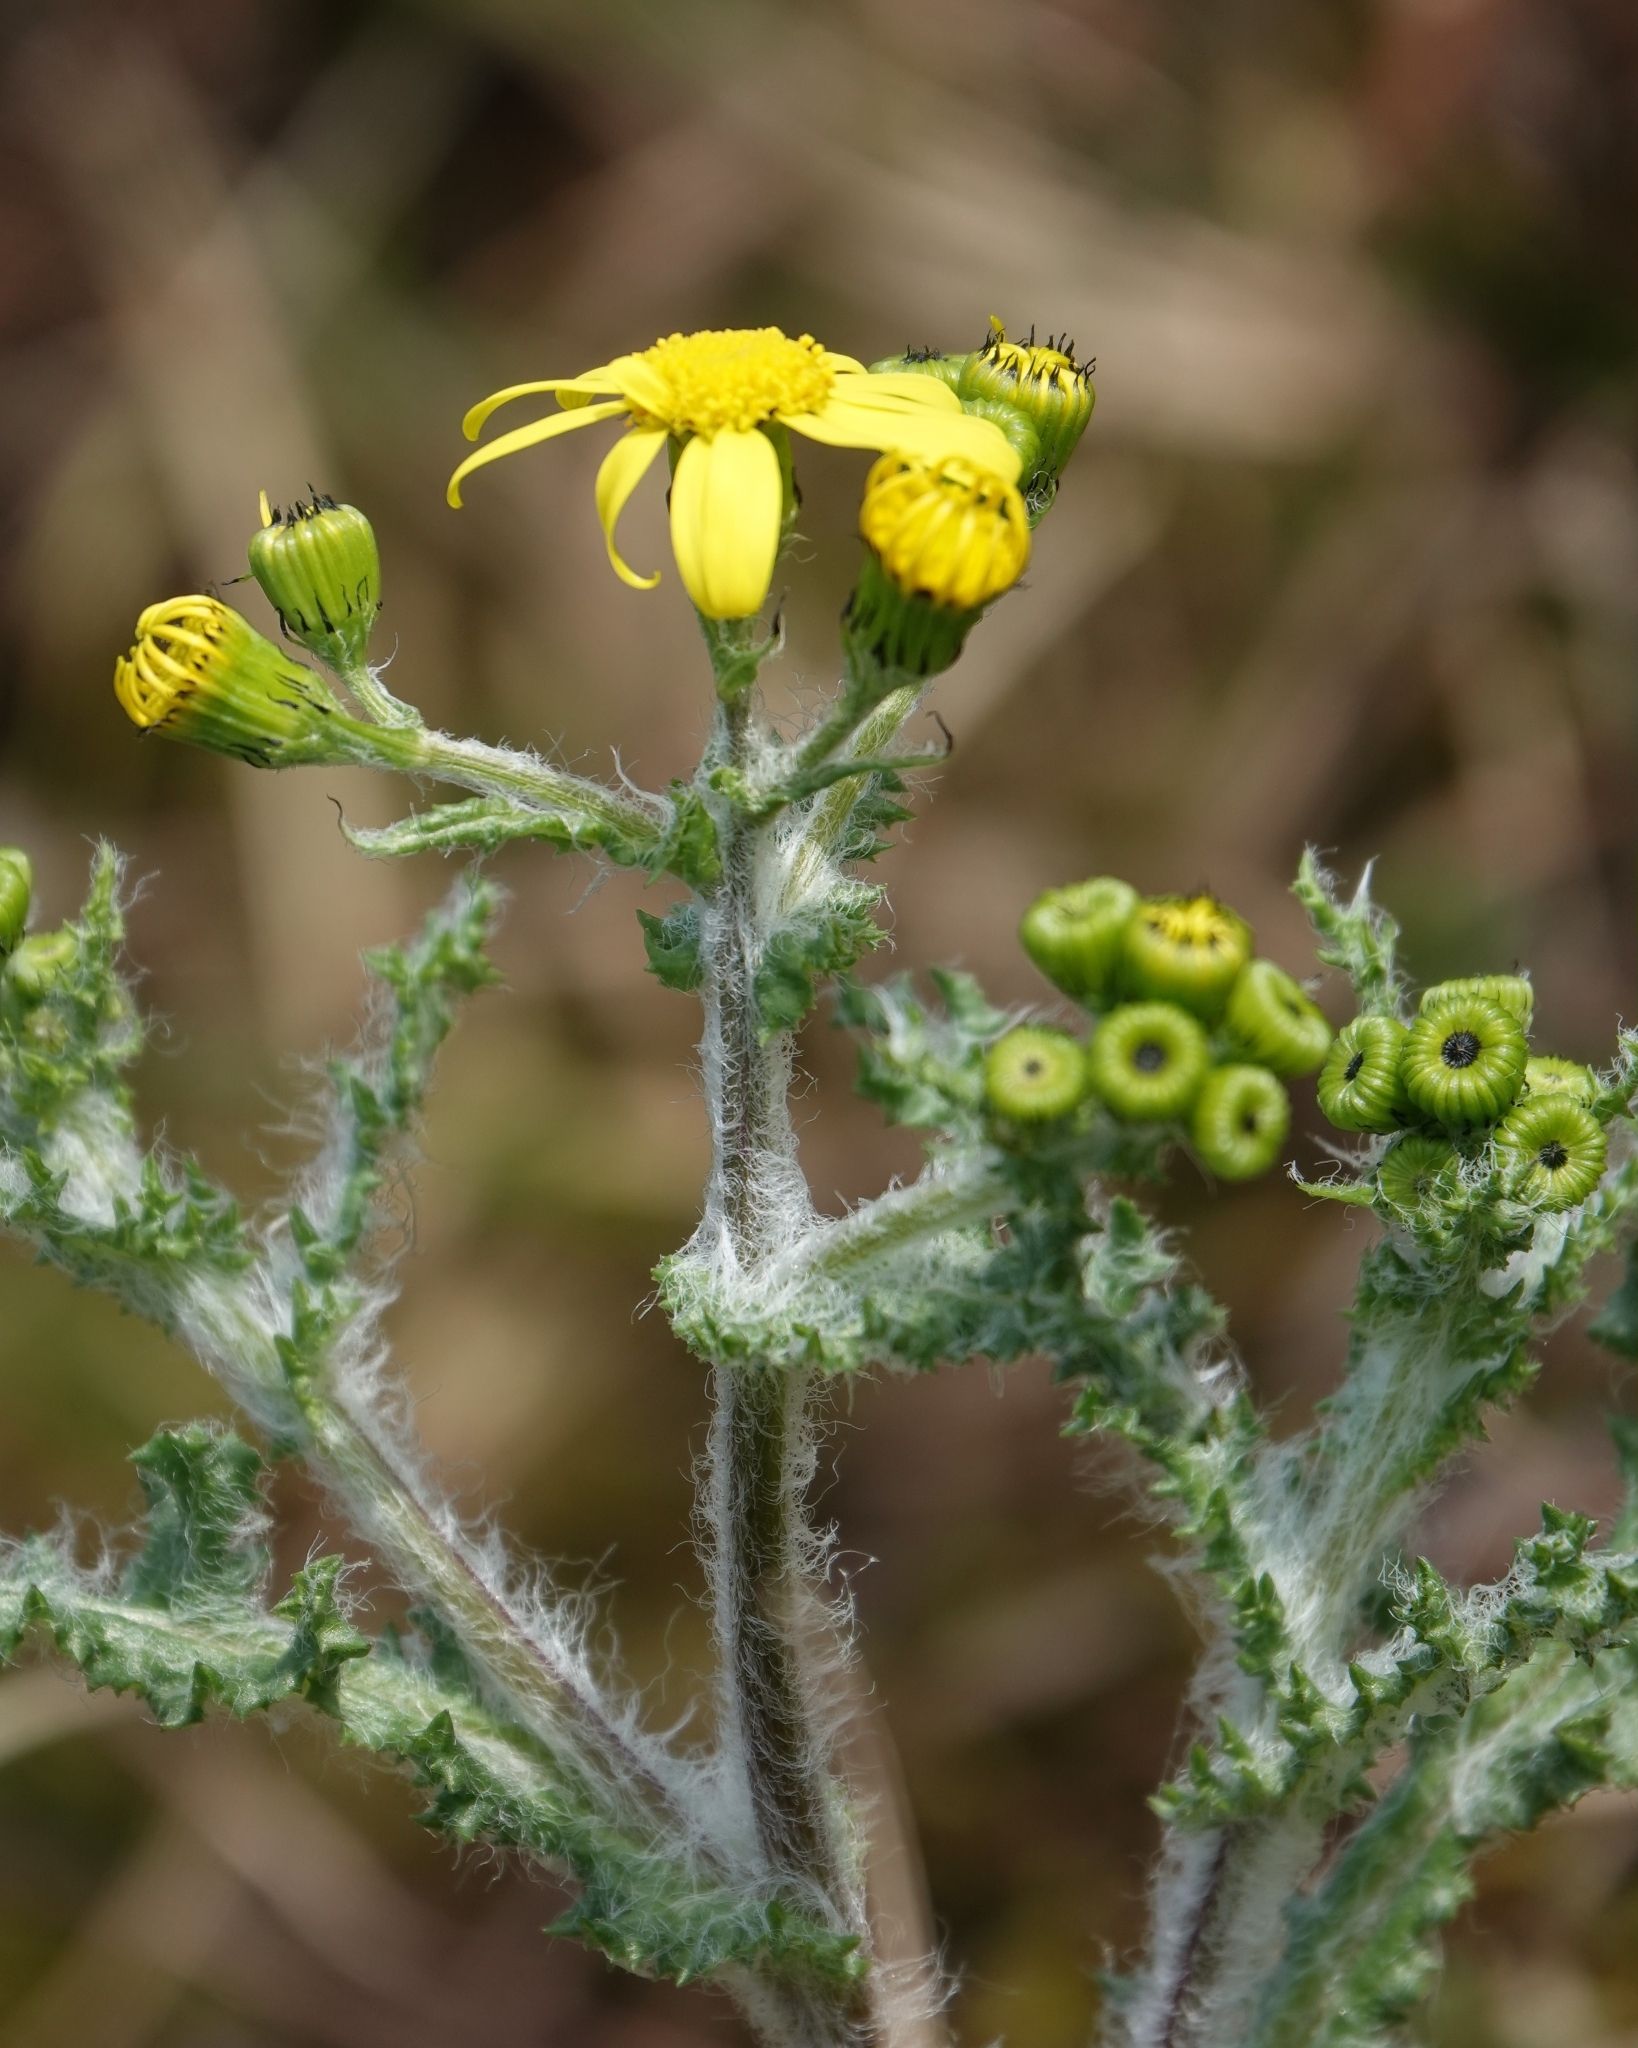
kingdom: Plantae
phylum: Tracheophyta
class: Magnoliopsida
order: Asterales
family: Asteraceae
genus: Senecio
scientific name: Senecio vernalis
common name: Eastern groundsel
